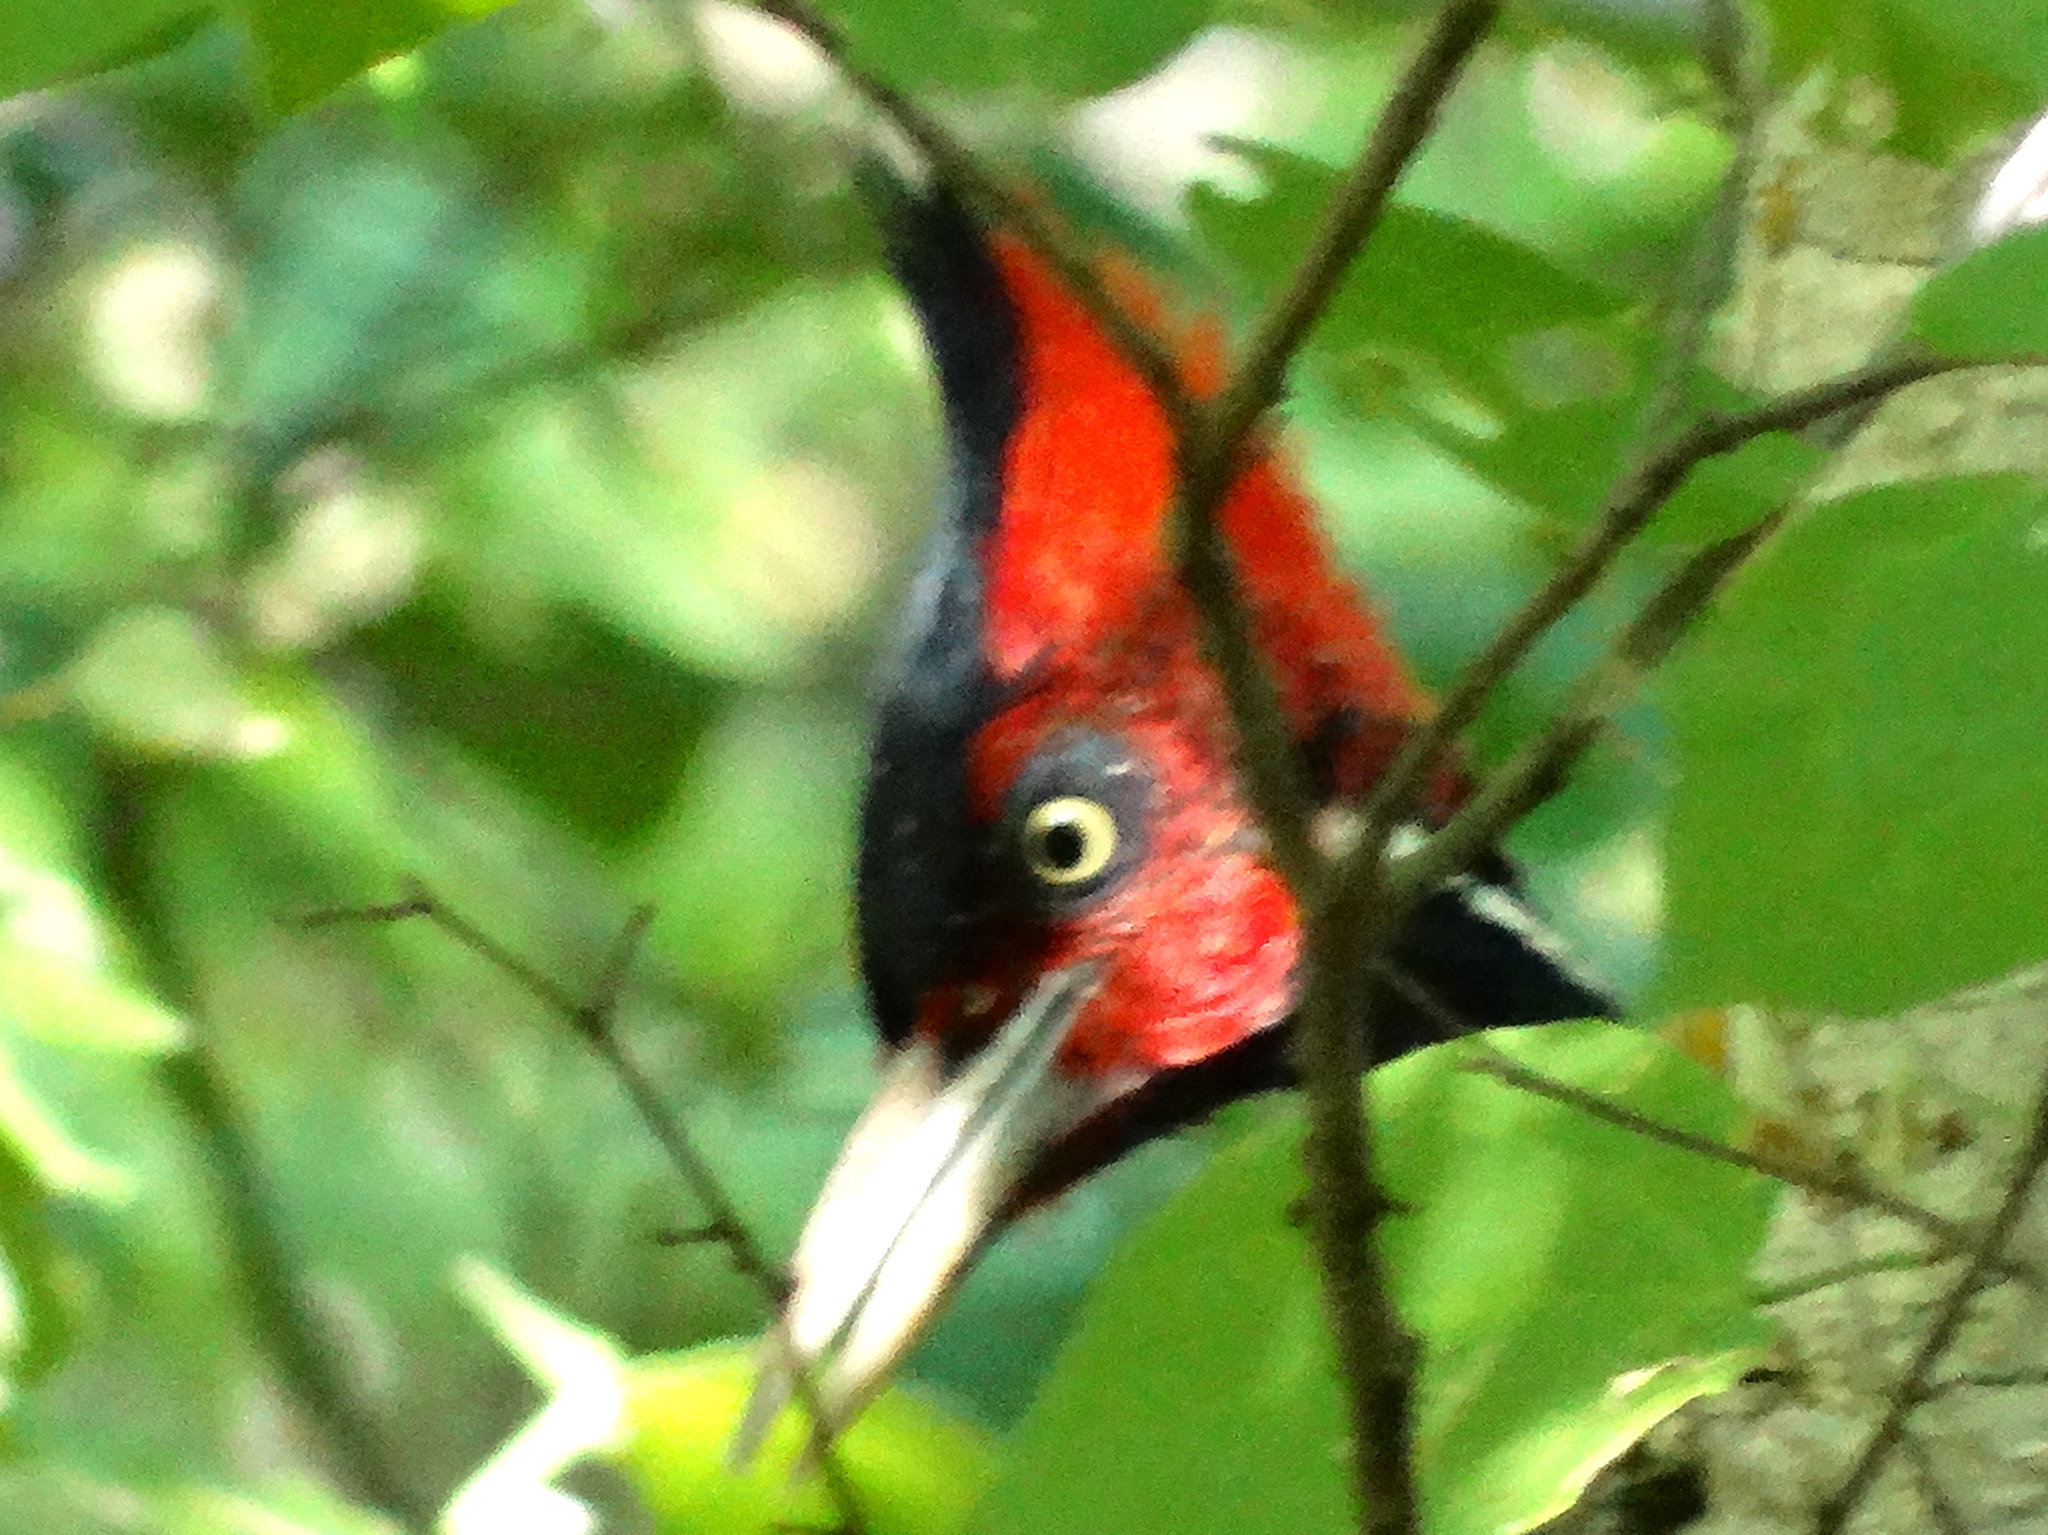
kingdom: Animalia
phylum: Chordata
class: Aves
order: Piciformes
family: Picidae
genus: Campephilus
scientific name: Campephilus guatemalensis
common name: Pale-billed woodpecker
